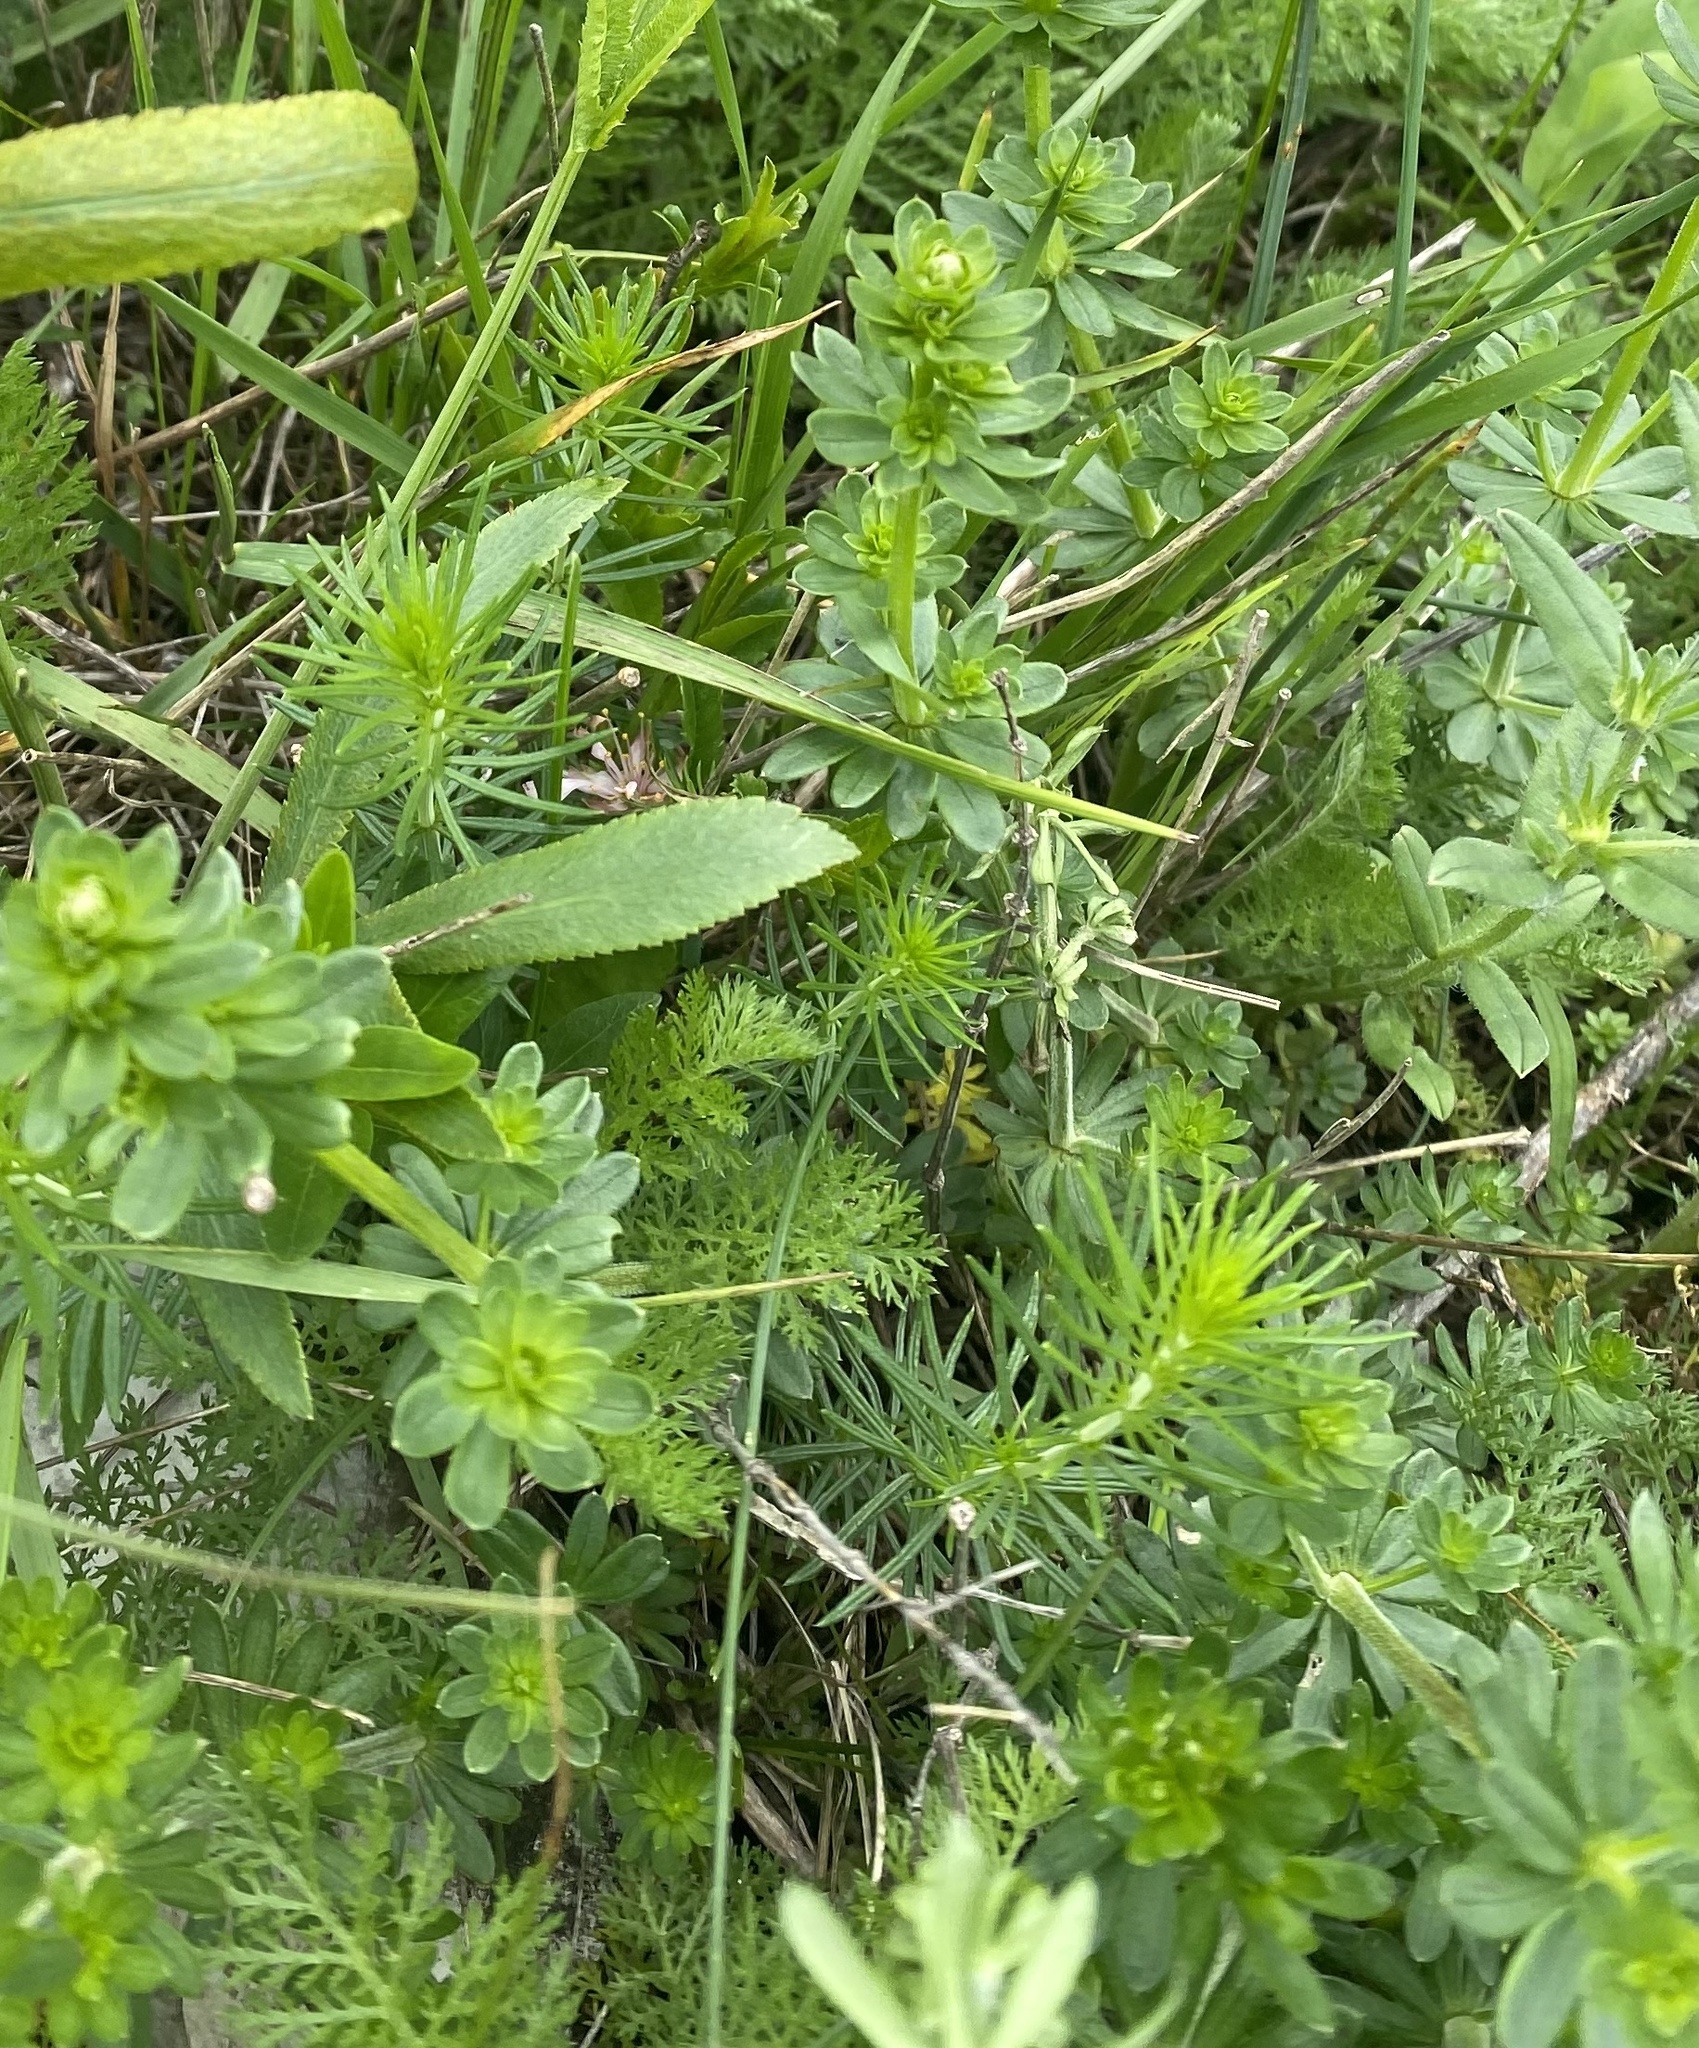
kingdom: Plantae
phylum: Tracheophyta
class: Magnoliopsida
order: Gentianales
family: Rubiaceae
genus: Galium
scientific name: Galium mollugo
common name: Hedge bedstraw
